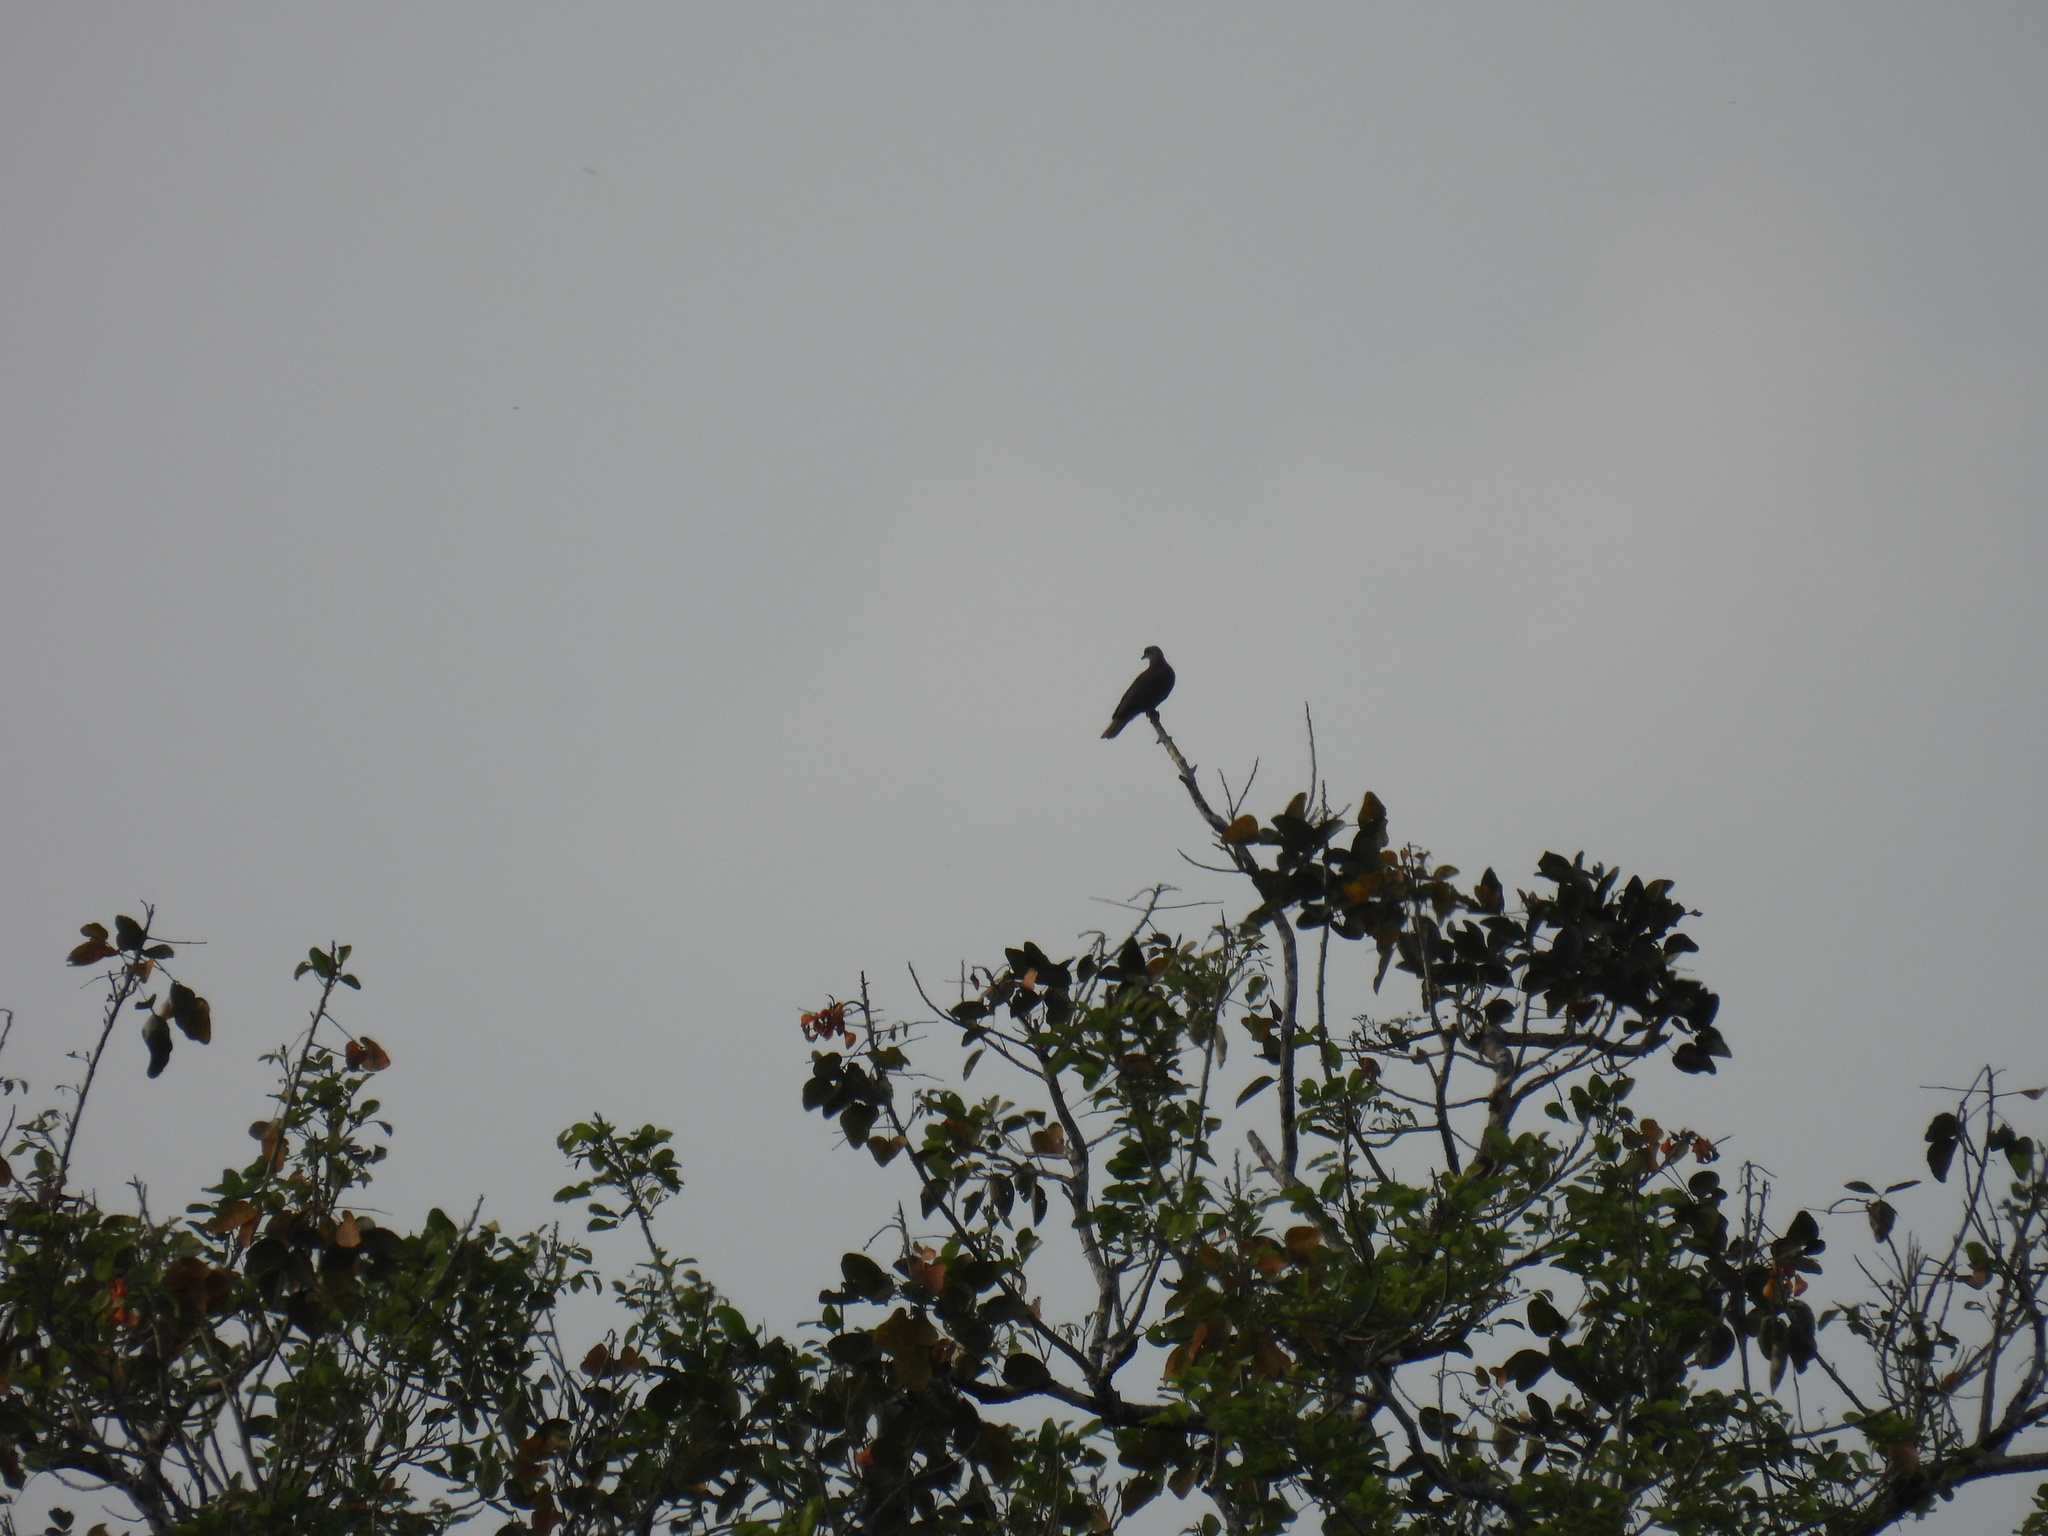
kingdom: Animalia
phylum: Chordata
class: Aves
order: Columbiformes
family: Columbidae
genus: Patagioenas
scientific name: Patagioenas cayennensis
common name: Pale-vented pigeon
